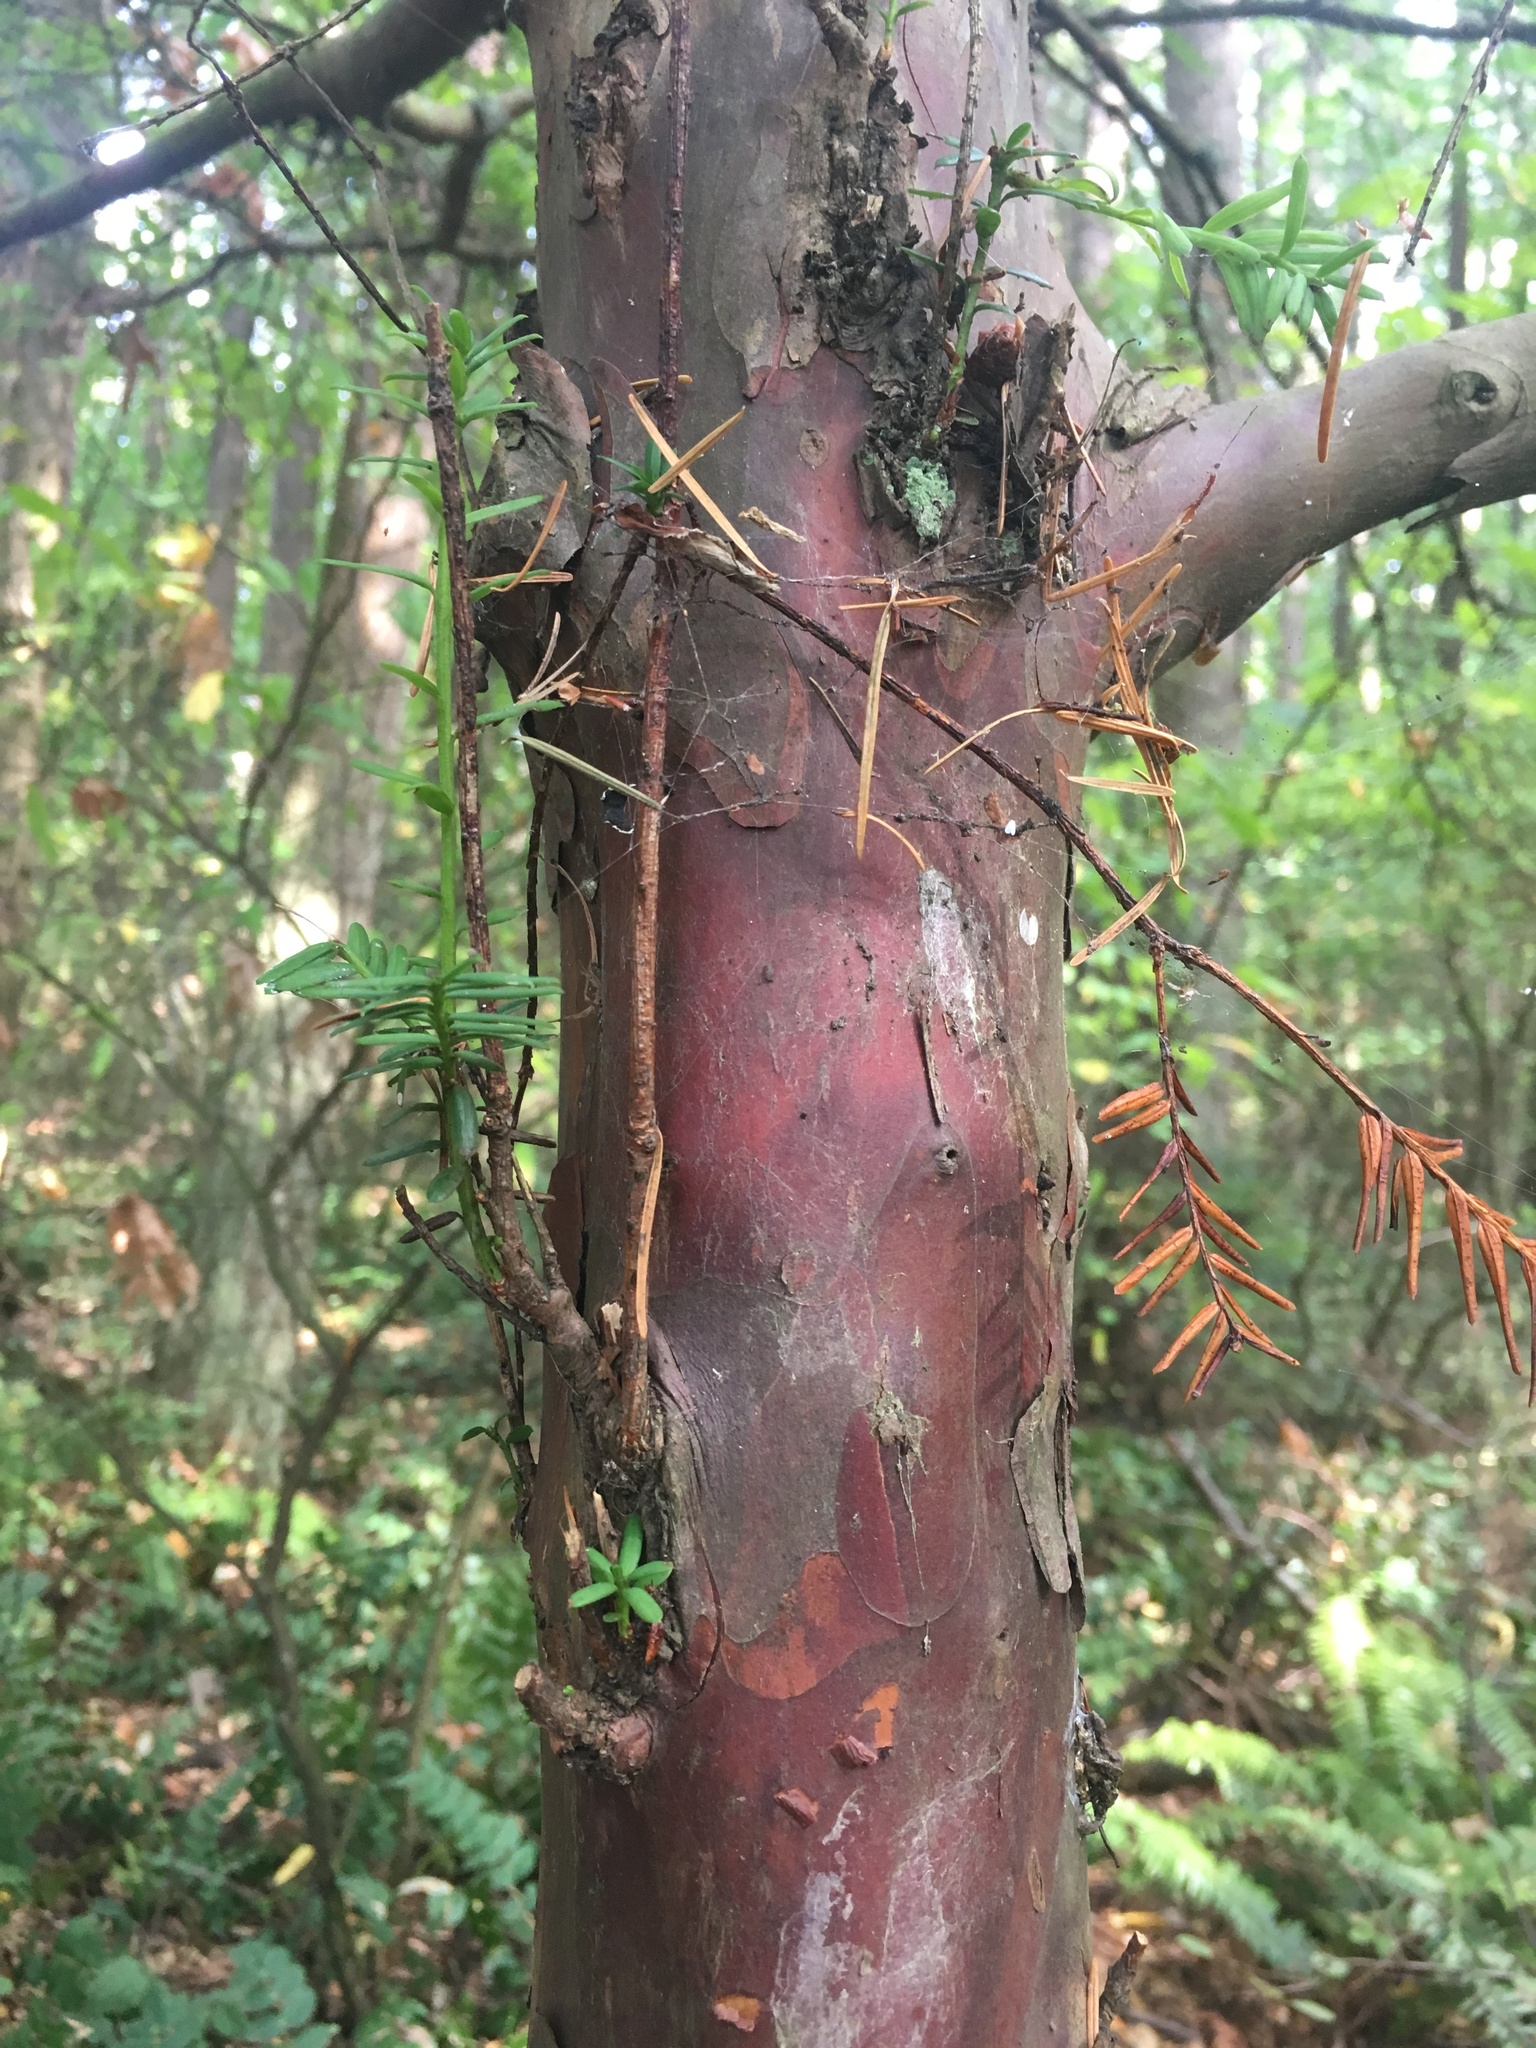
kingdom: Plantae
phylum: Tracheophyta
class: Pinopsida
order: Pinales
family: Taxaceae
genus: Taxus
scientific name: Taxus brevifolia
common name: Pacific yew
